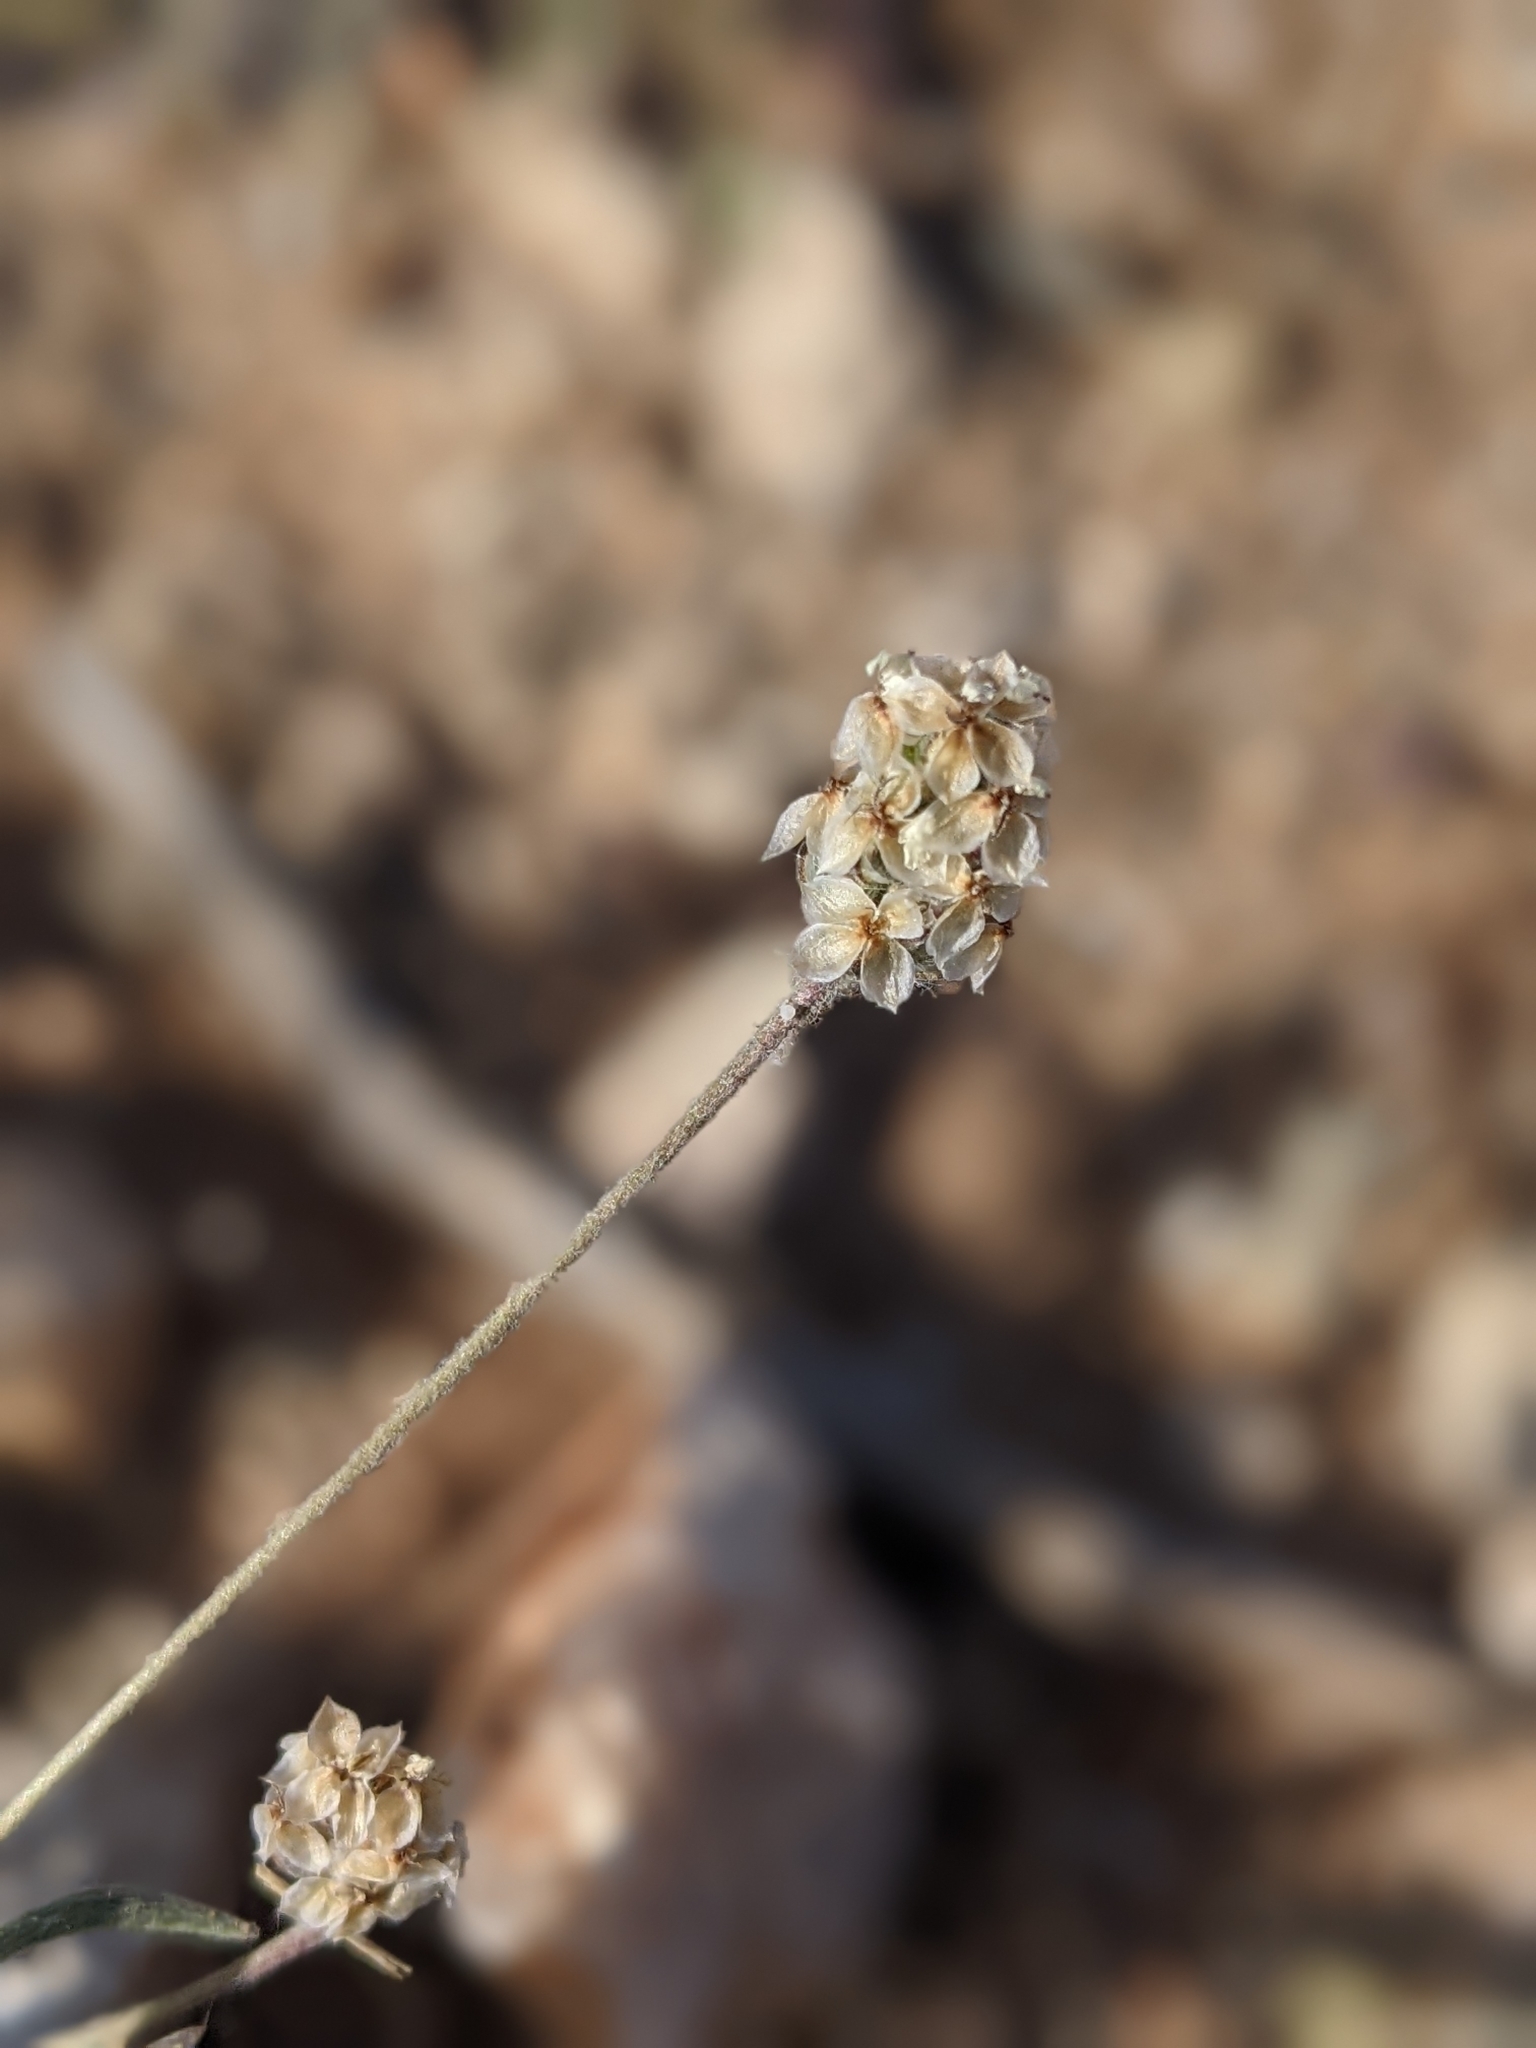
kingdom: Plantae
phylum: Tracheophyta
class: Magnoliopsida
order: Lamiales
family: Plantaginaceae
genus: Plantago
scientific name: Plantago ovata
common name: Blond plantain
